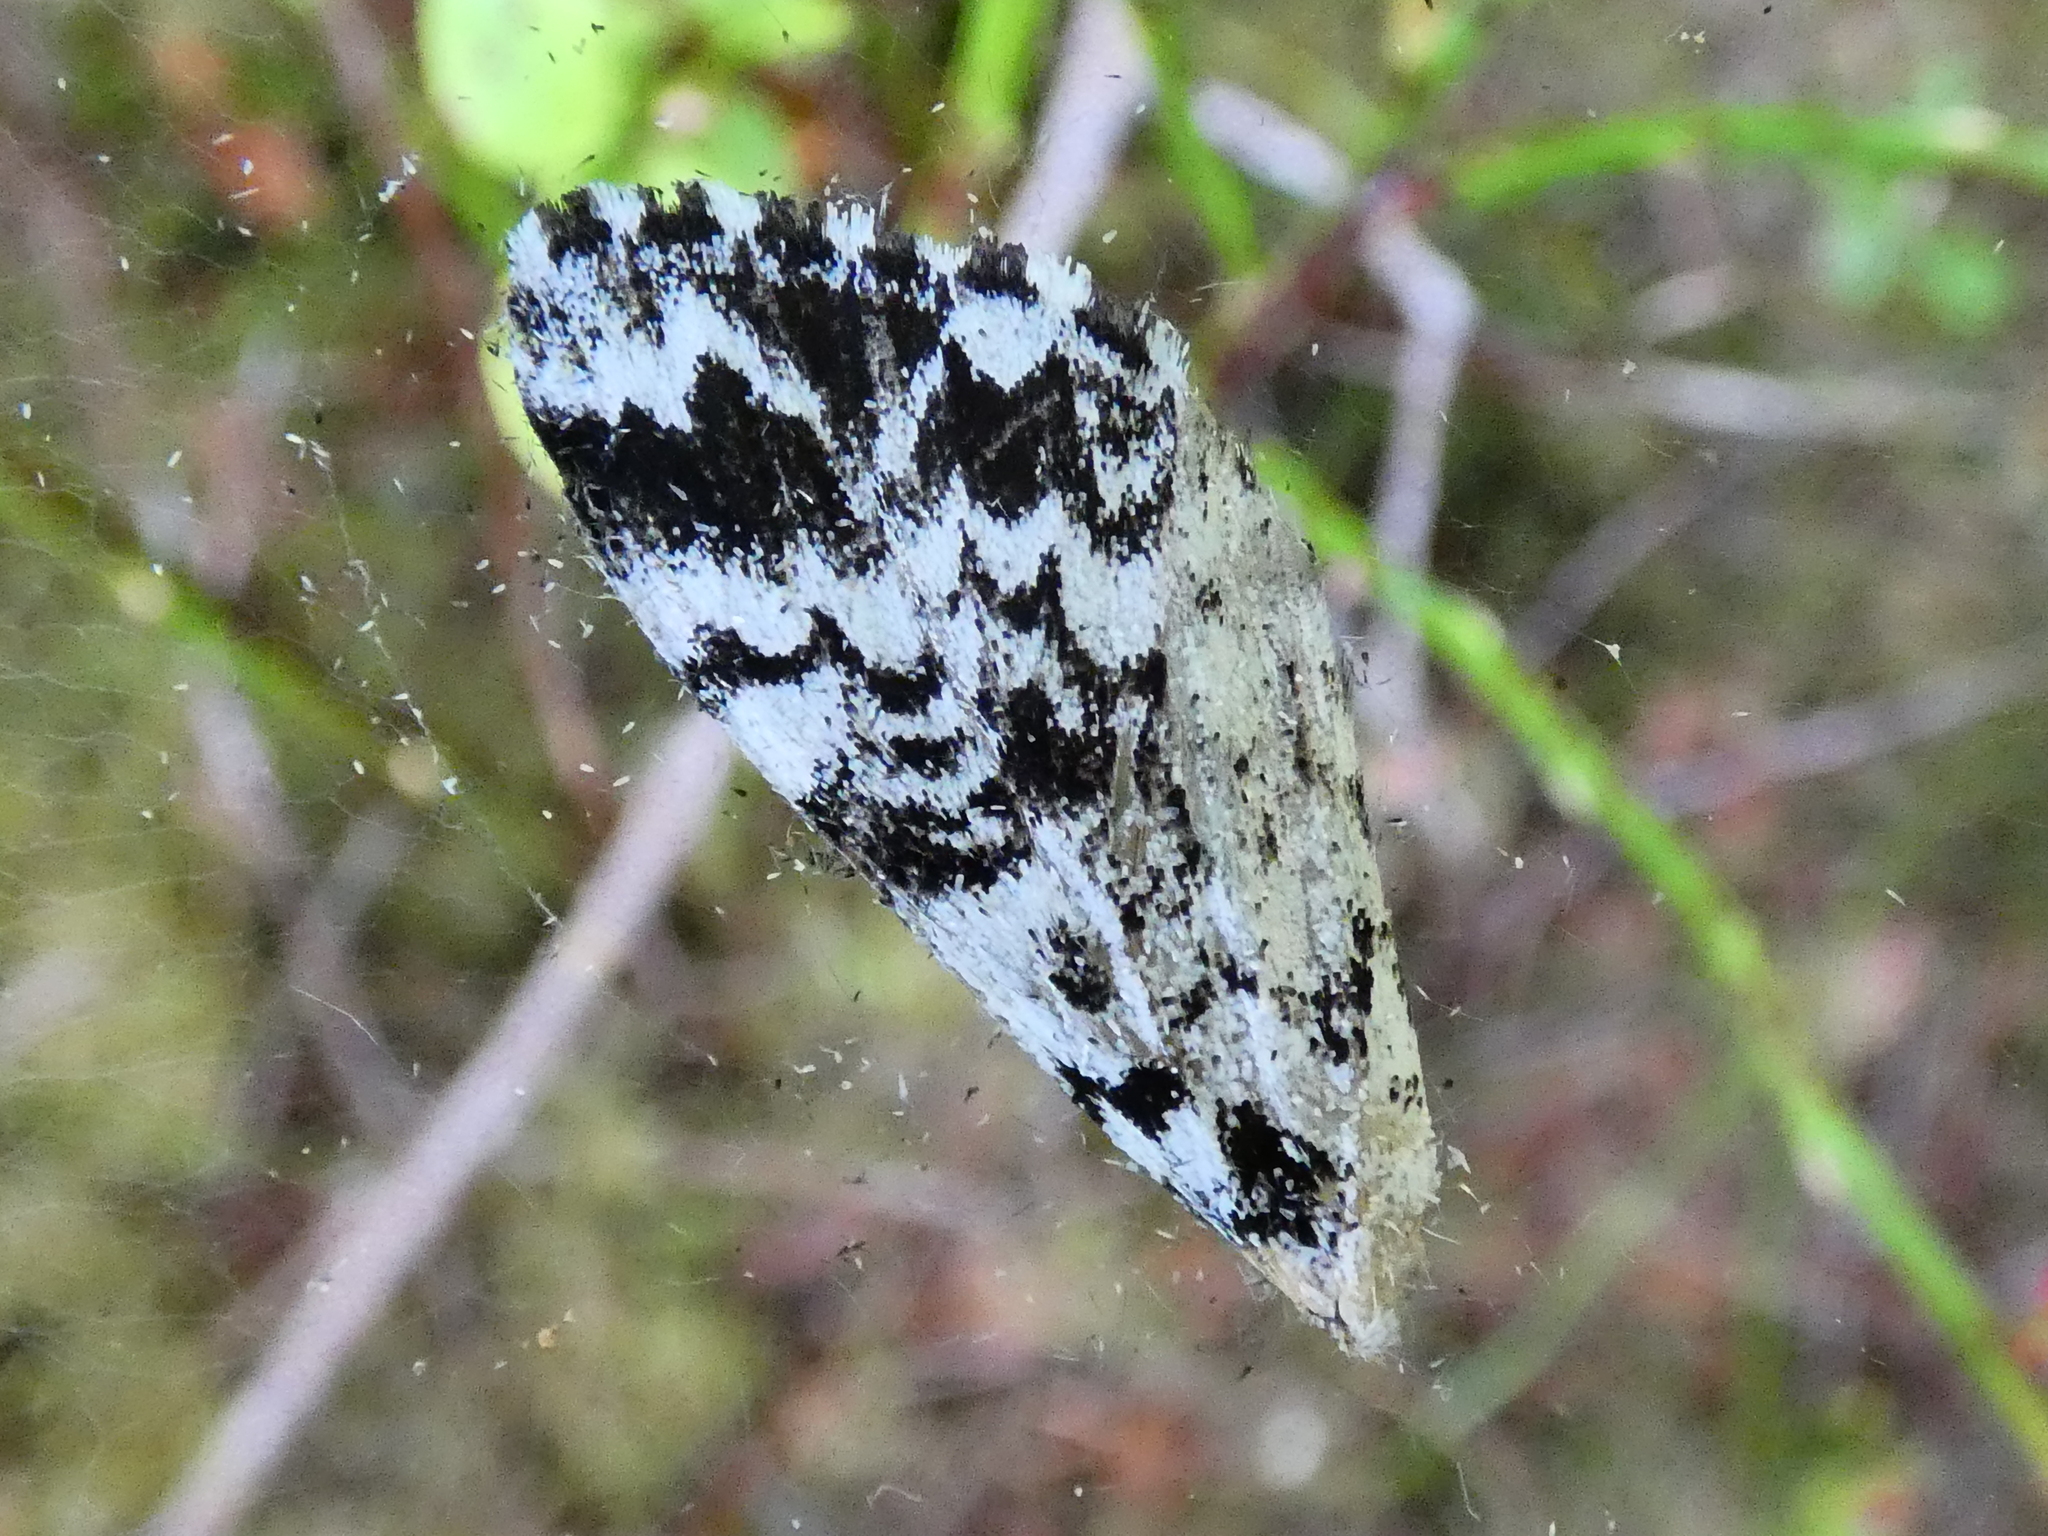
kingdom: Animalia
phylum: Arthropoda
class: Insecta
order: Lepidoptera
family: Noctuidae
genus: Panthea
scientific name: Panthea coenobita
